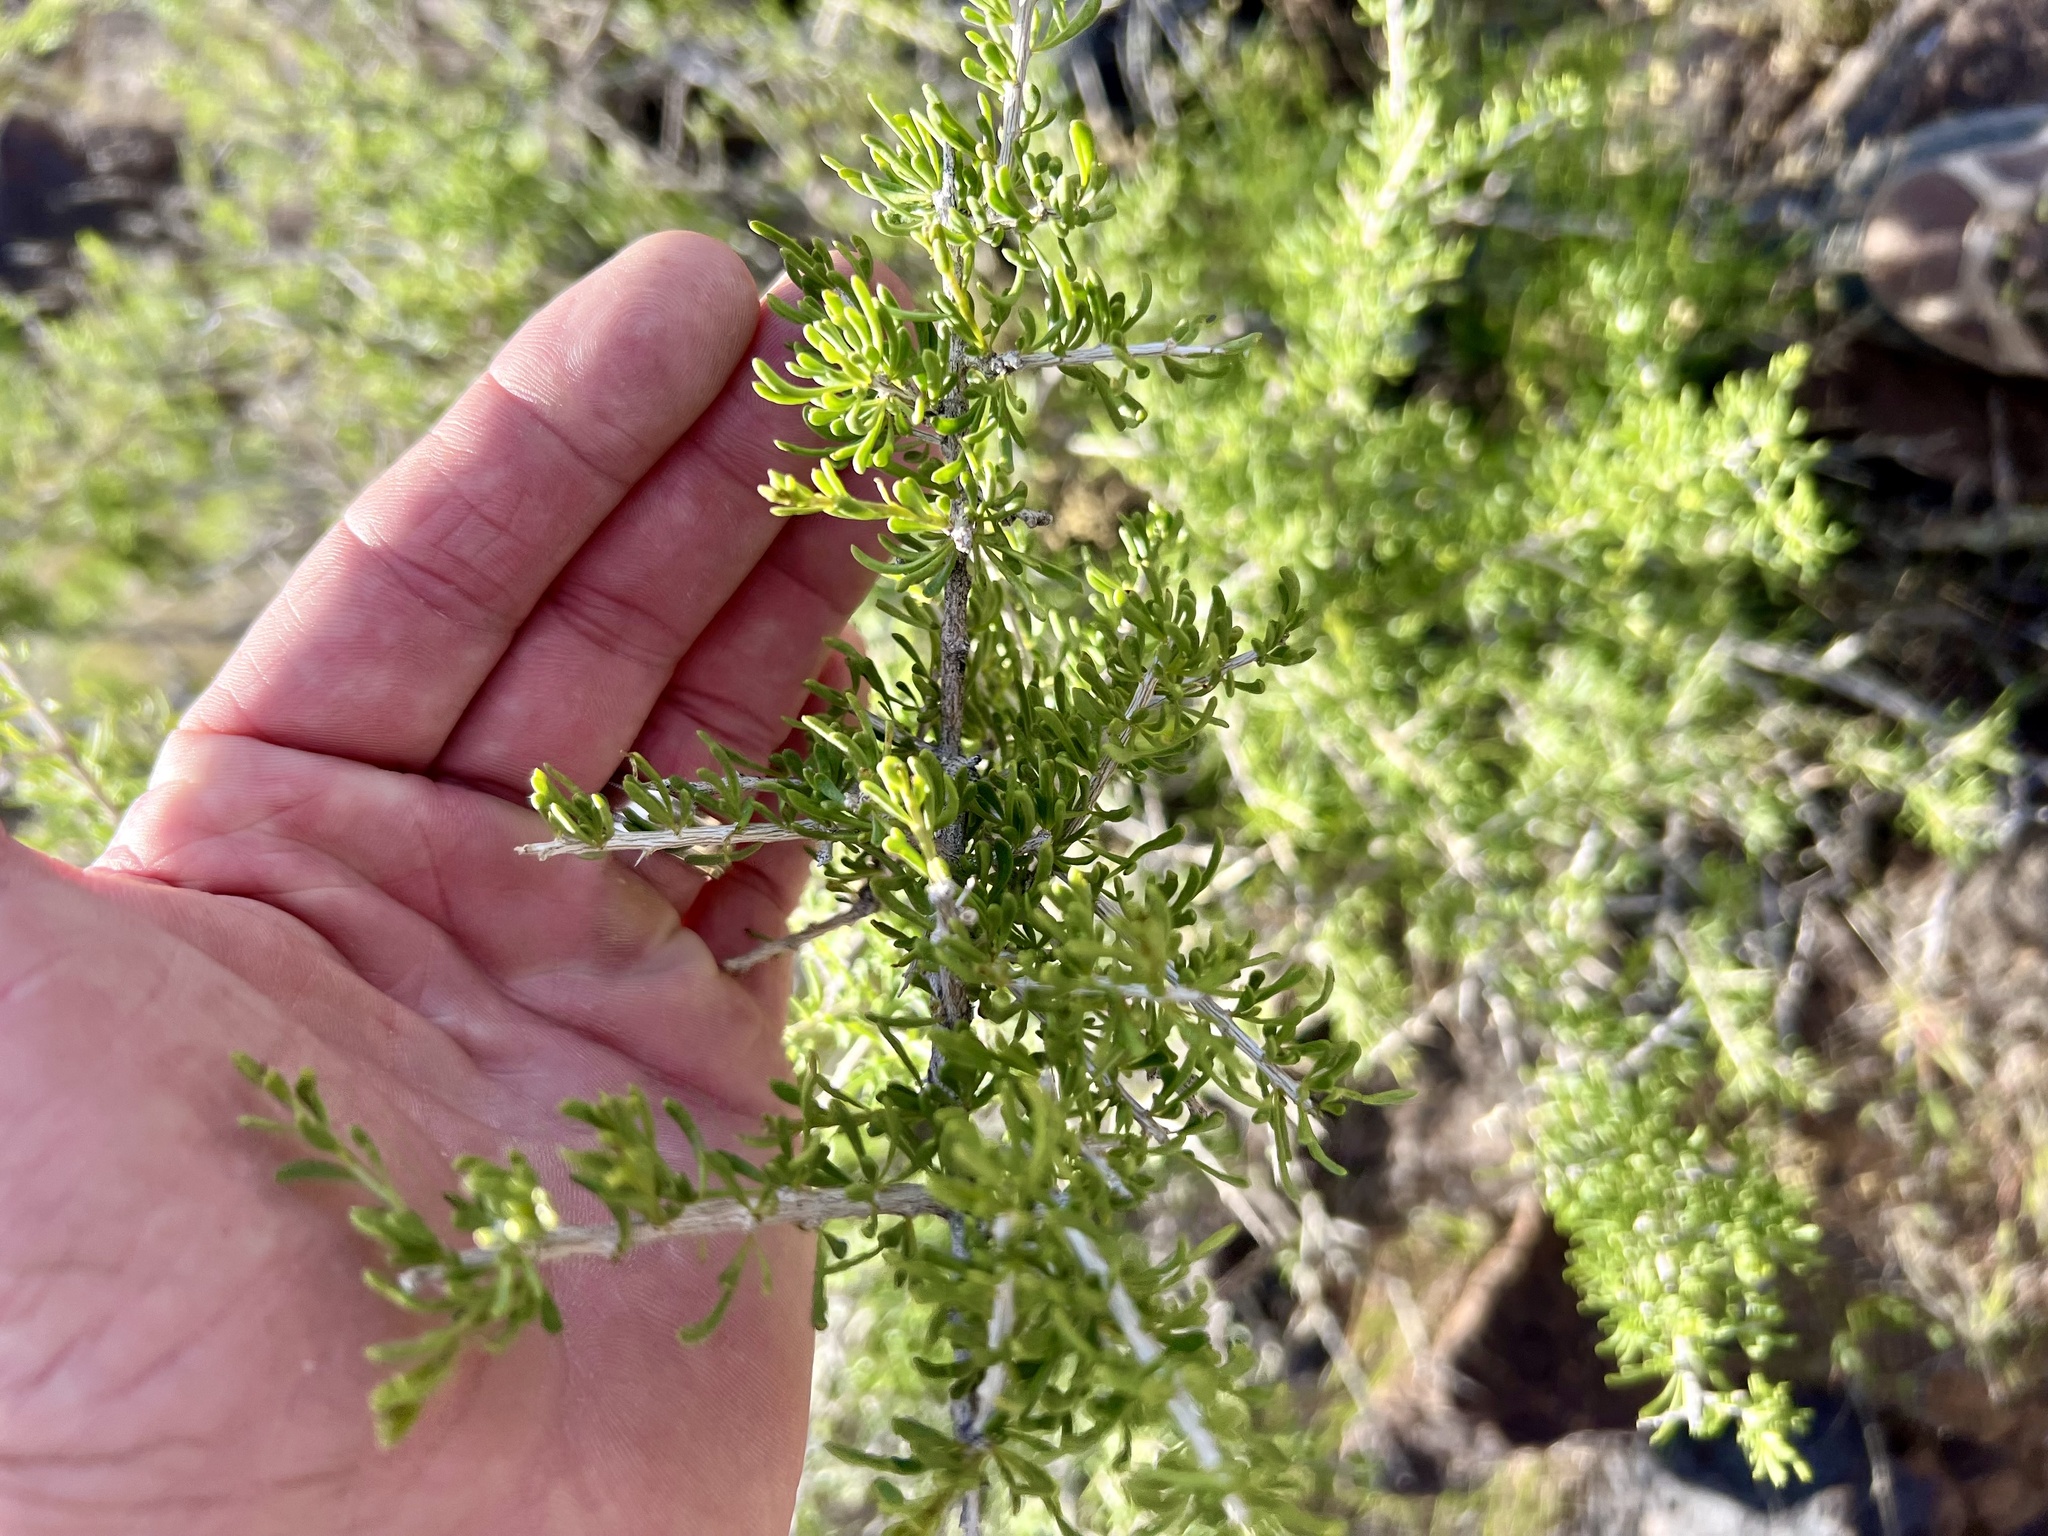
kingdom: Plantae
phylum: Tracheophyta
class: Magnoliopsida
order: Caryophyllales
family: Sarcobataceae
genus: Sarcobatus
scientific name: Sarcobatus vermiculatus
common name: Greasewood
